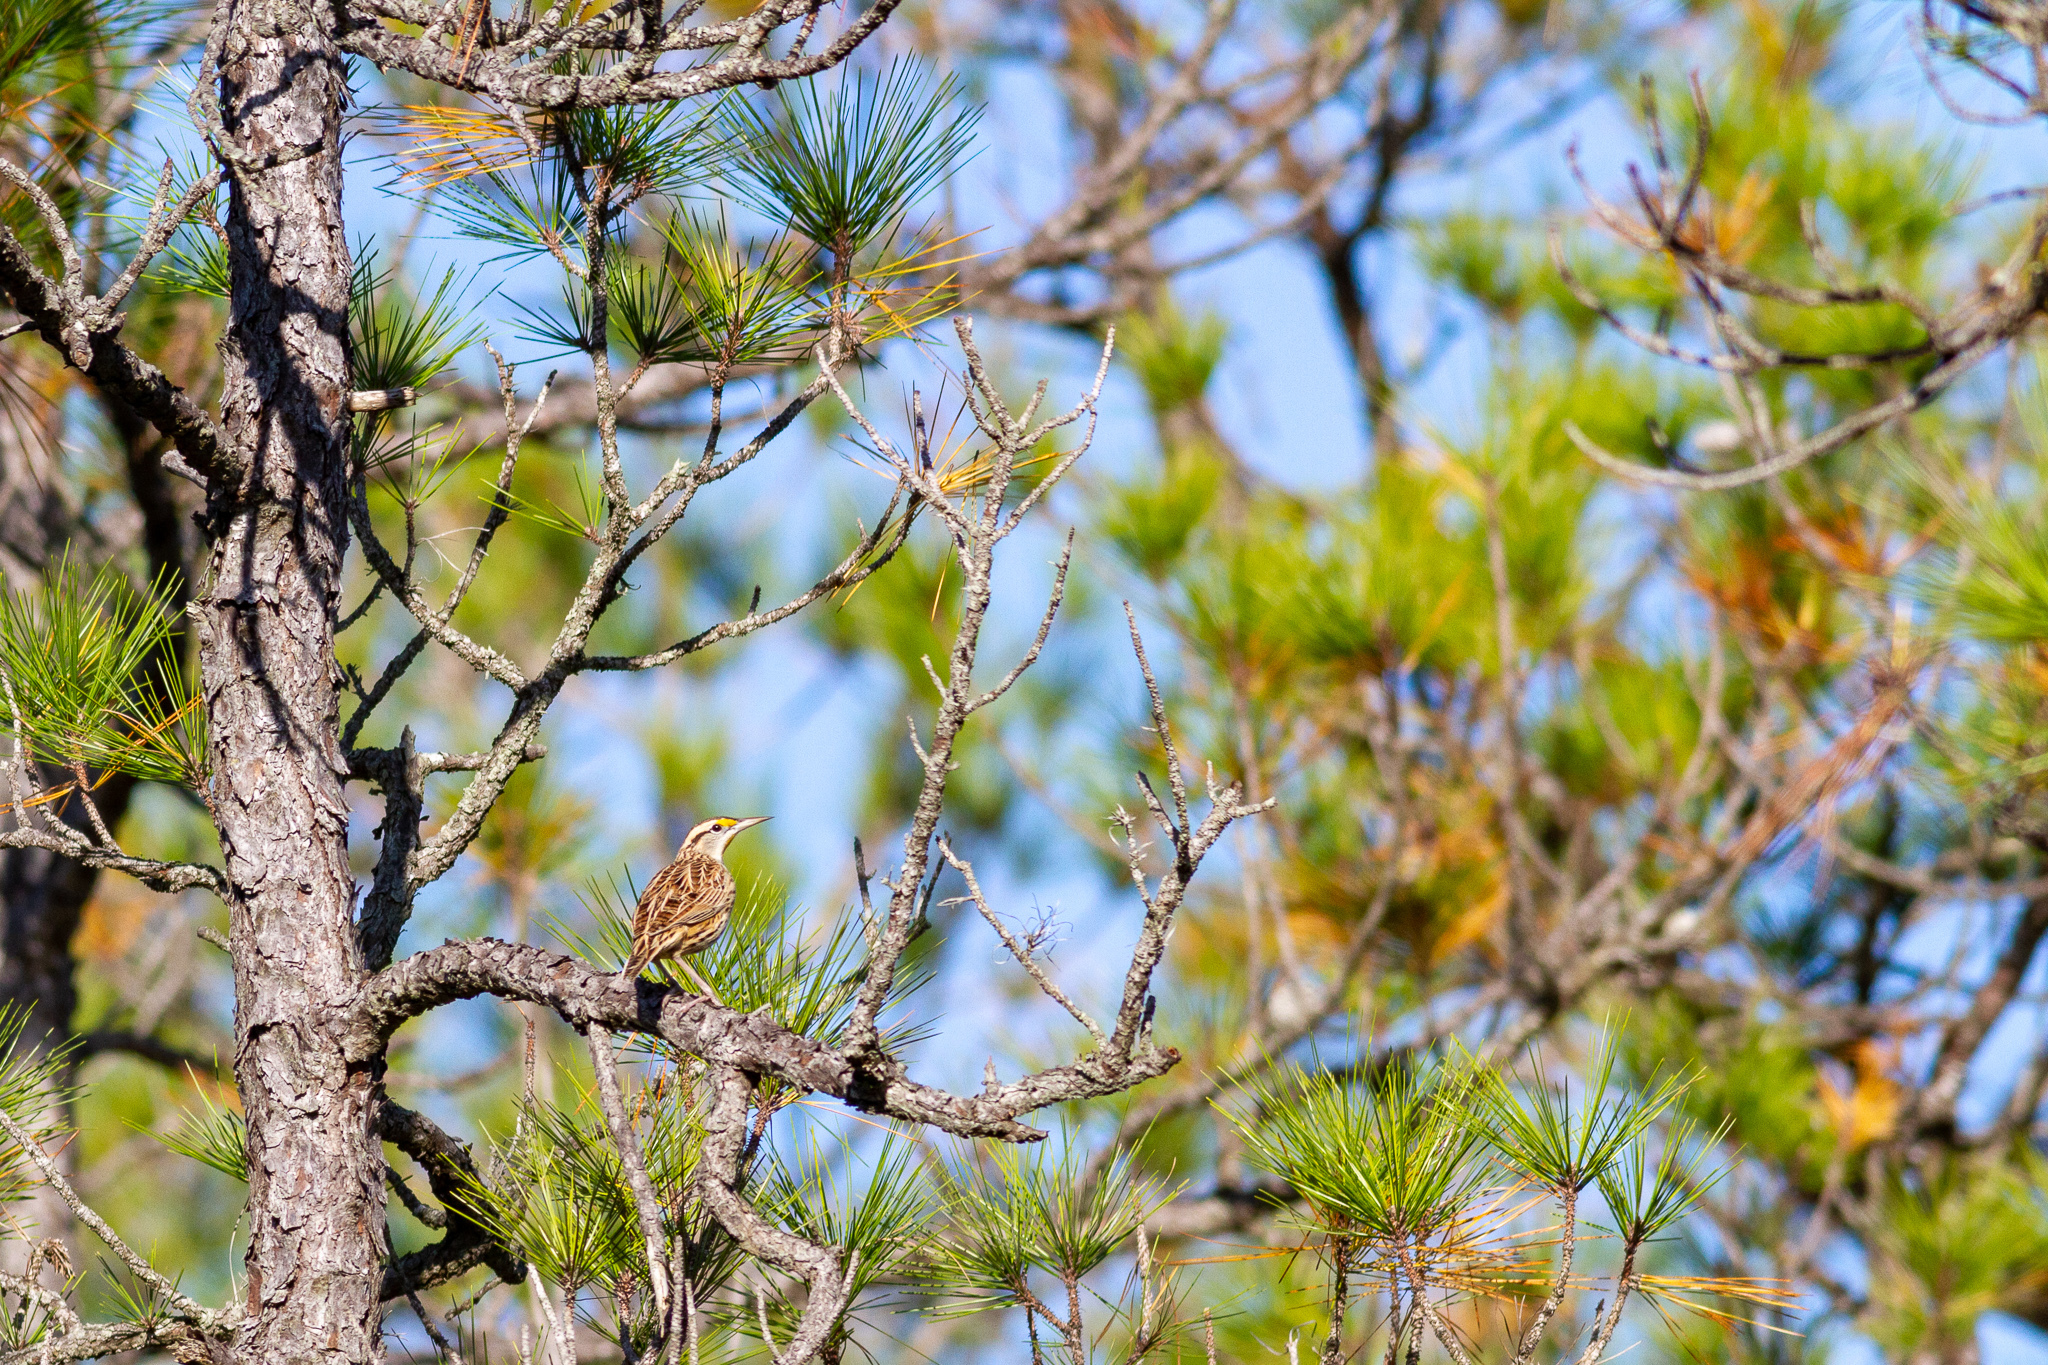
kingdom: Animalia
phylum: Chordata
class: Aves
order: Passeriformes
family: Icteridae
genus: Sturnella
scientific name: Sturnella magna
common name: Eastern meadowlark
